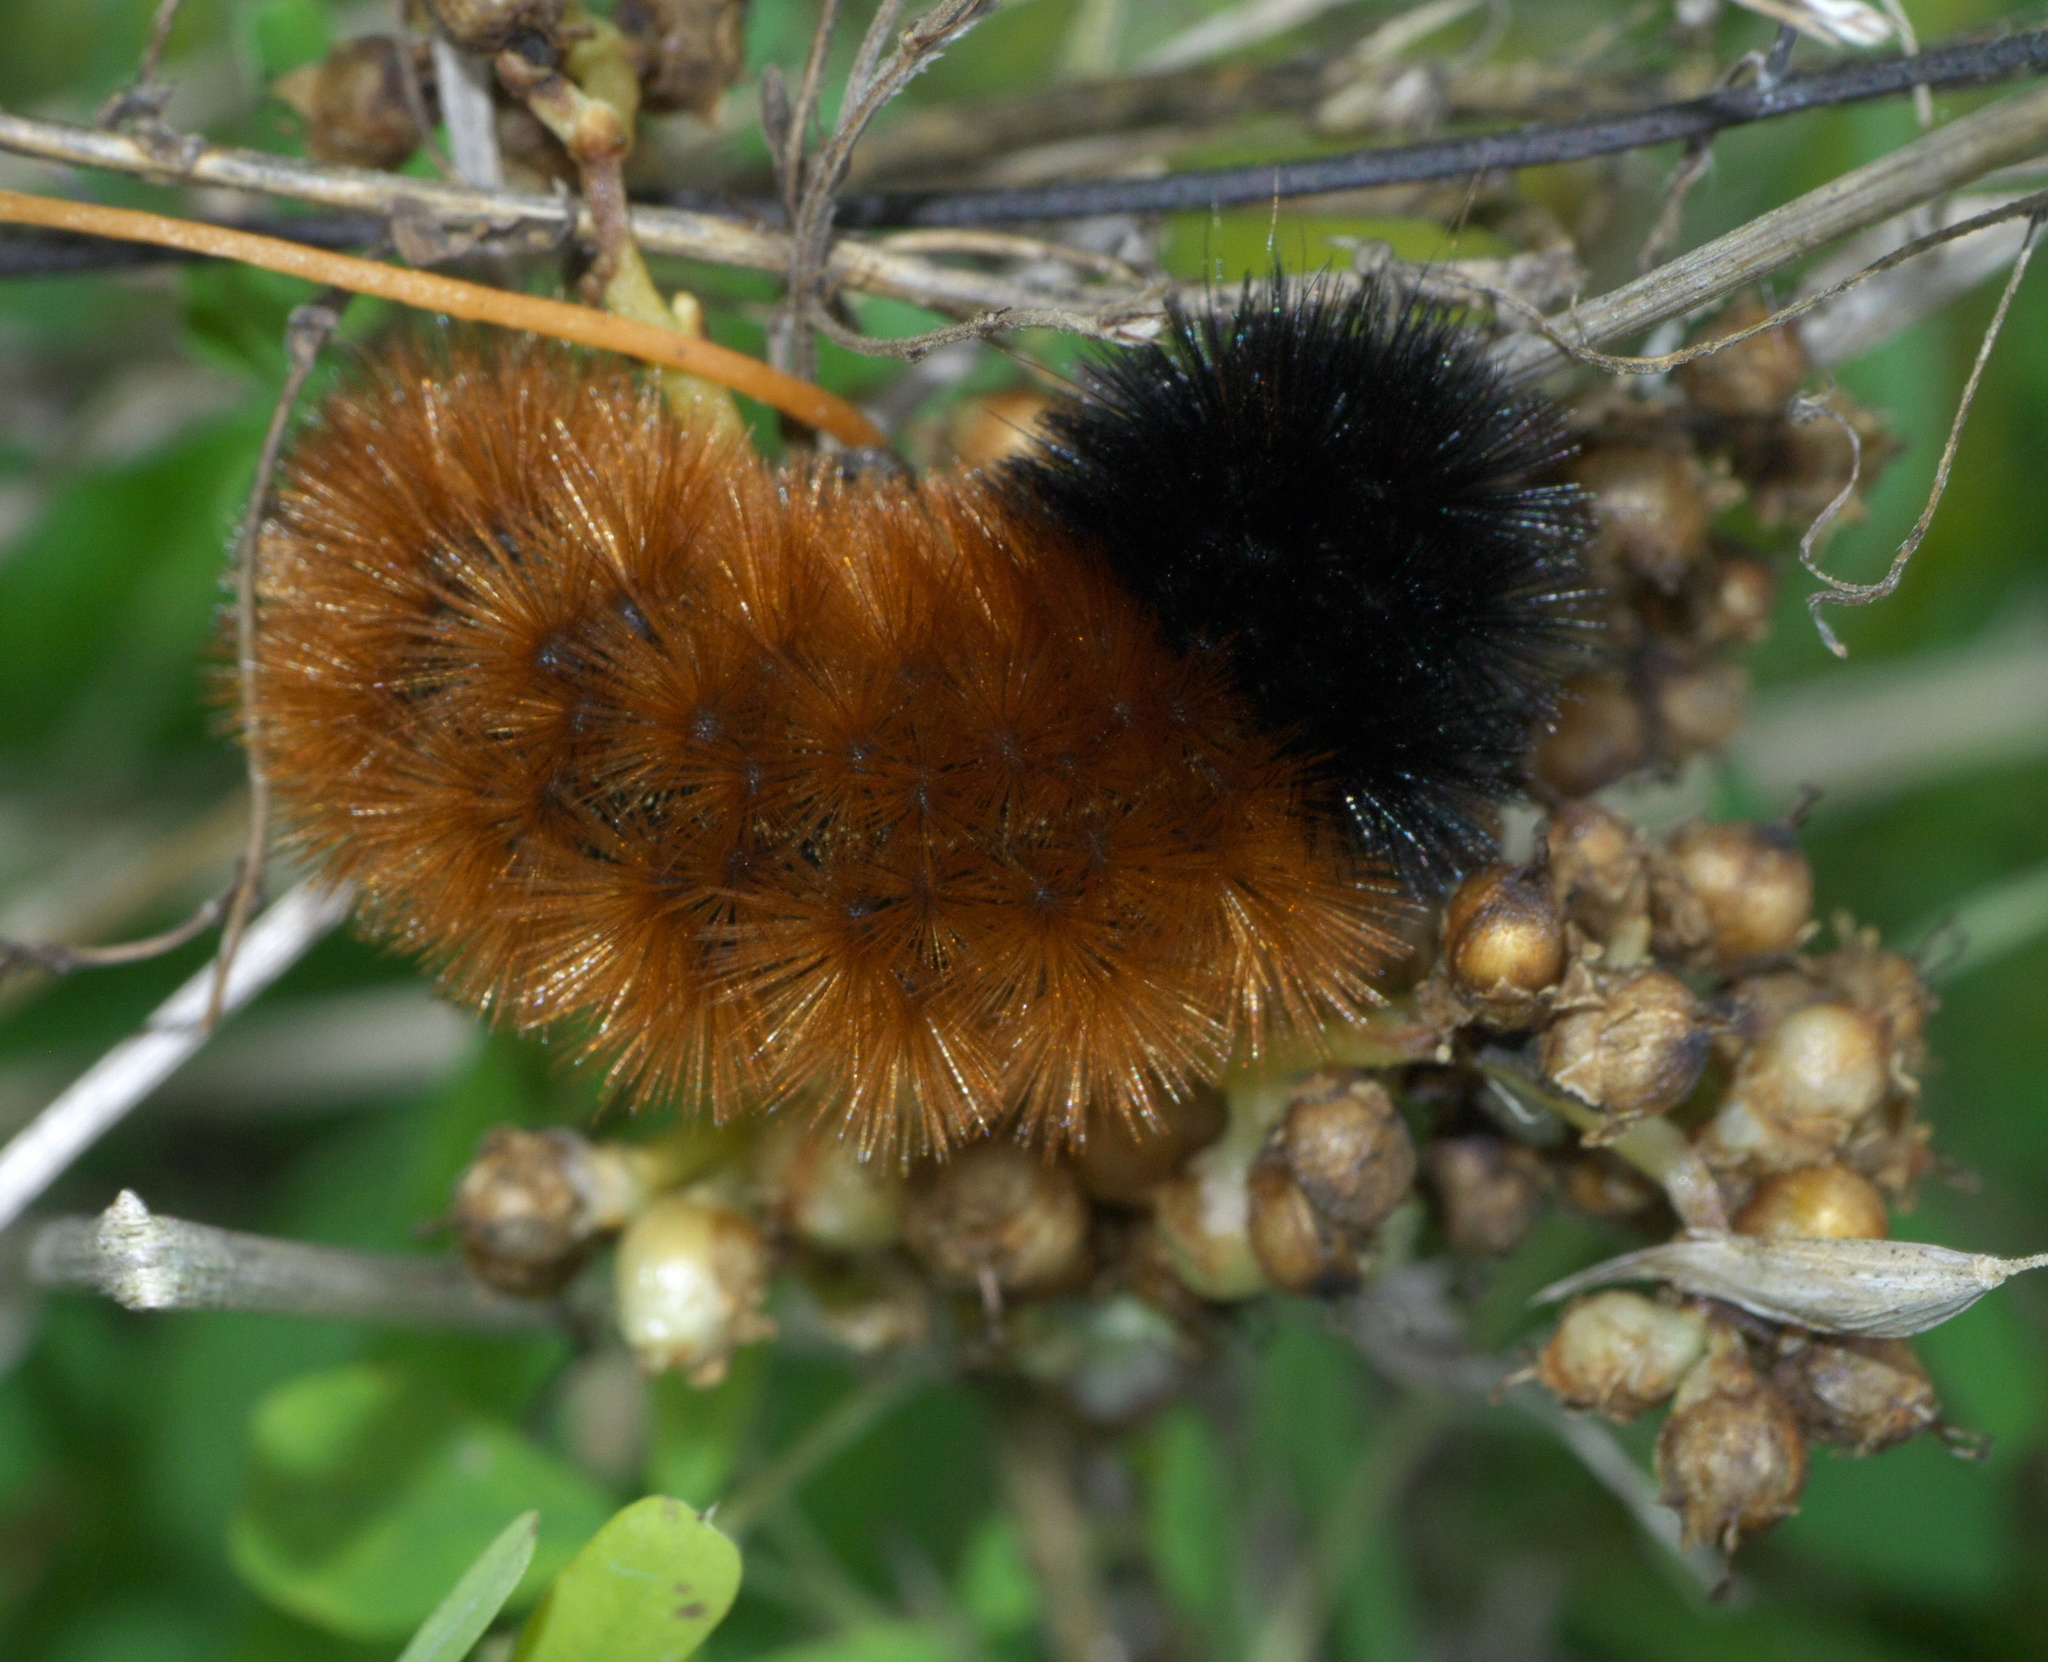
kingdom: Animalia
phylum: Arthropoda
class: Insecta
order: Lepidoptera
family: Erebidae
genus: Pyrrharctia
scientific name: Pyrrharctia isabella
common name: Isabella tiger moth
